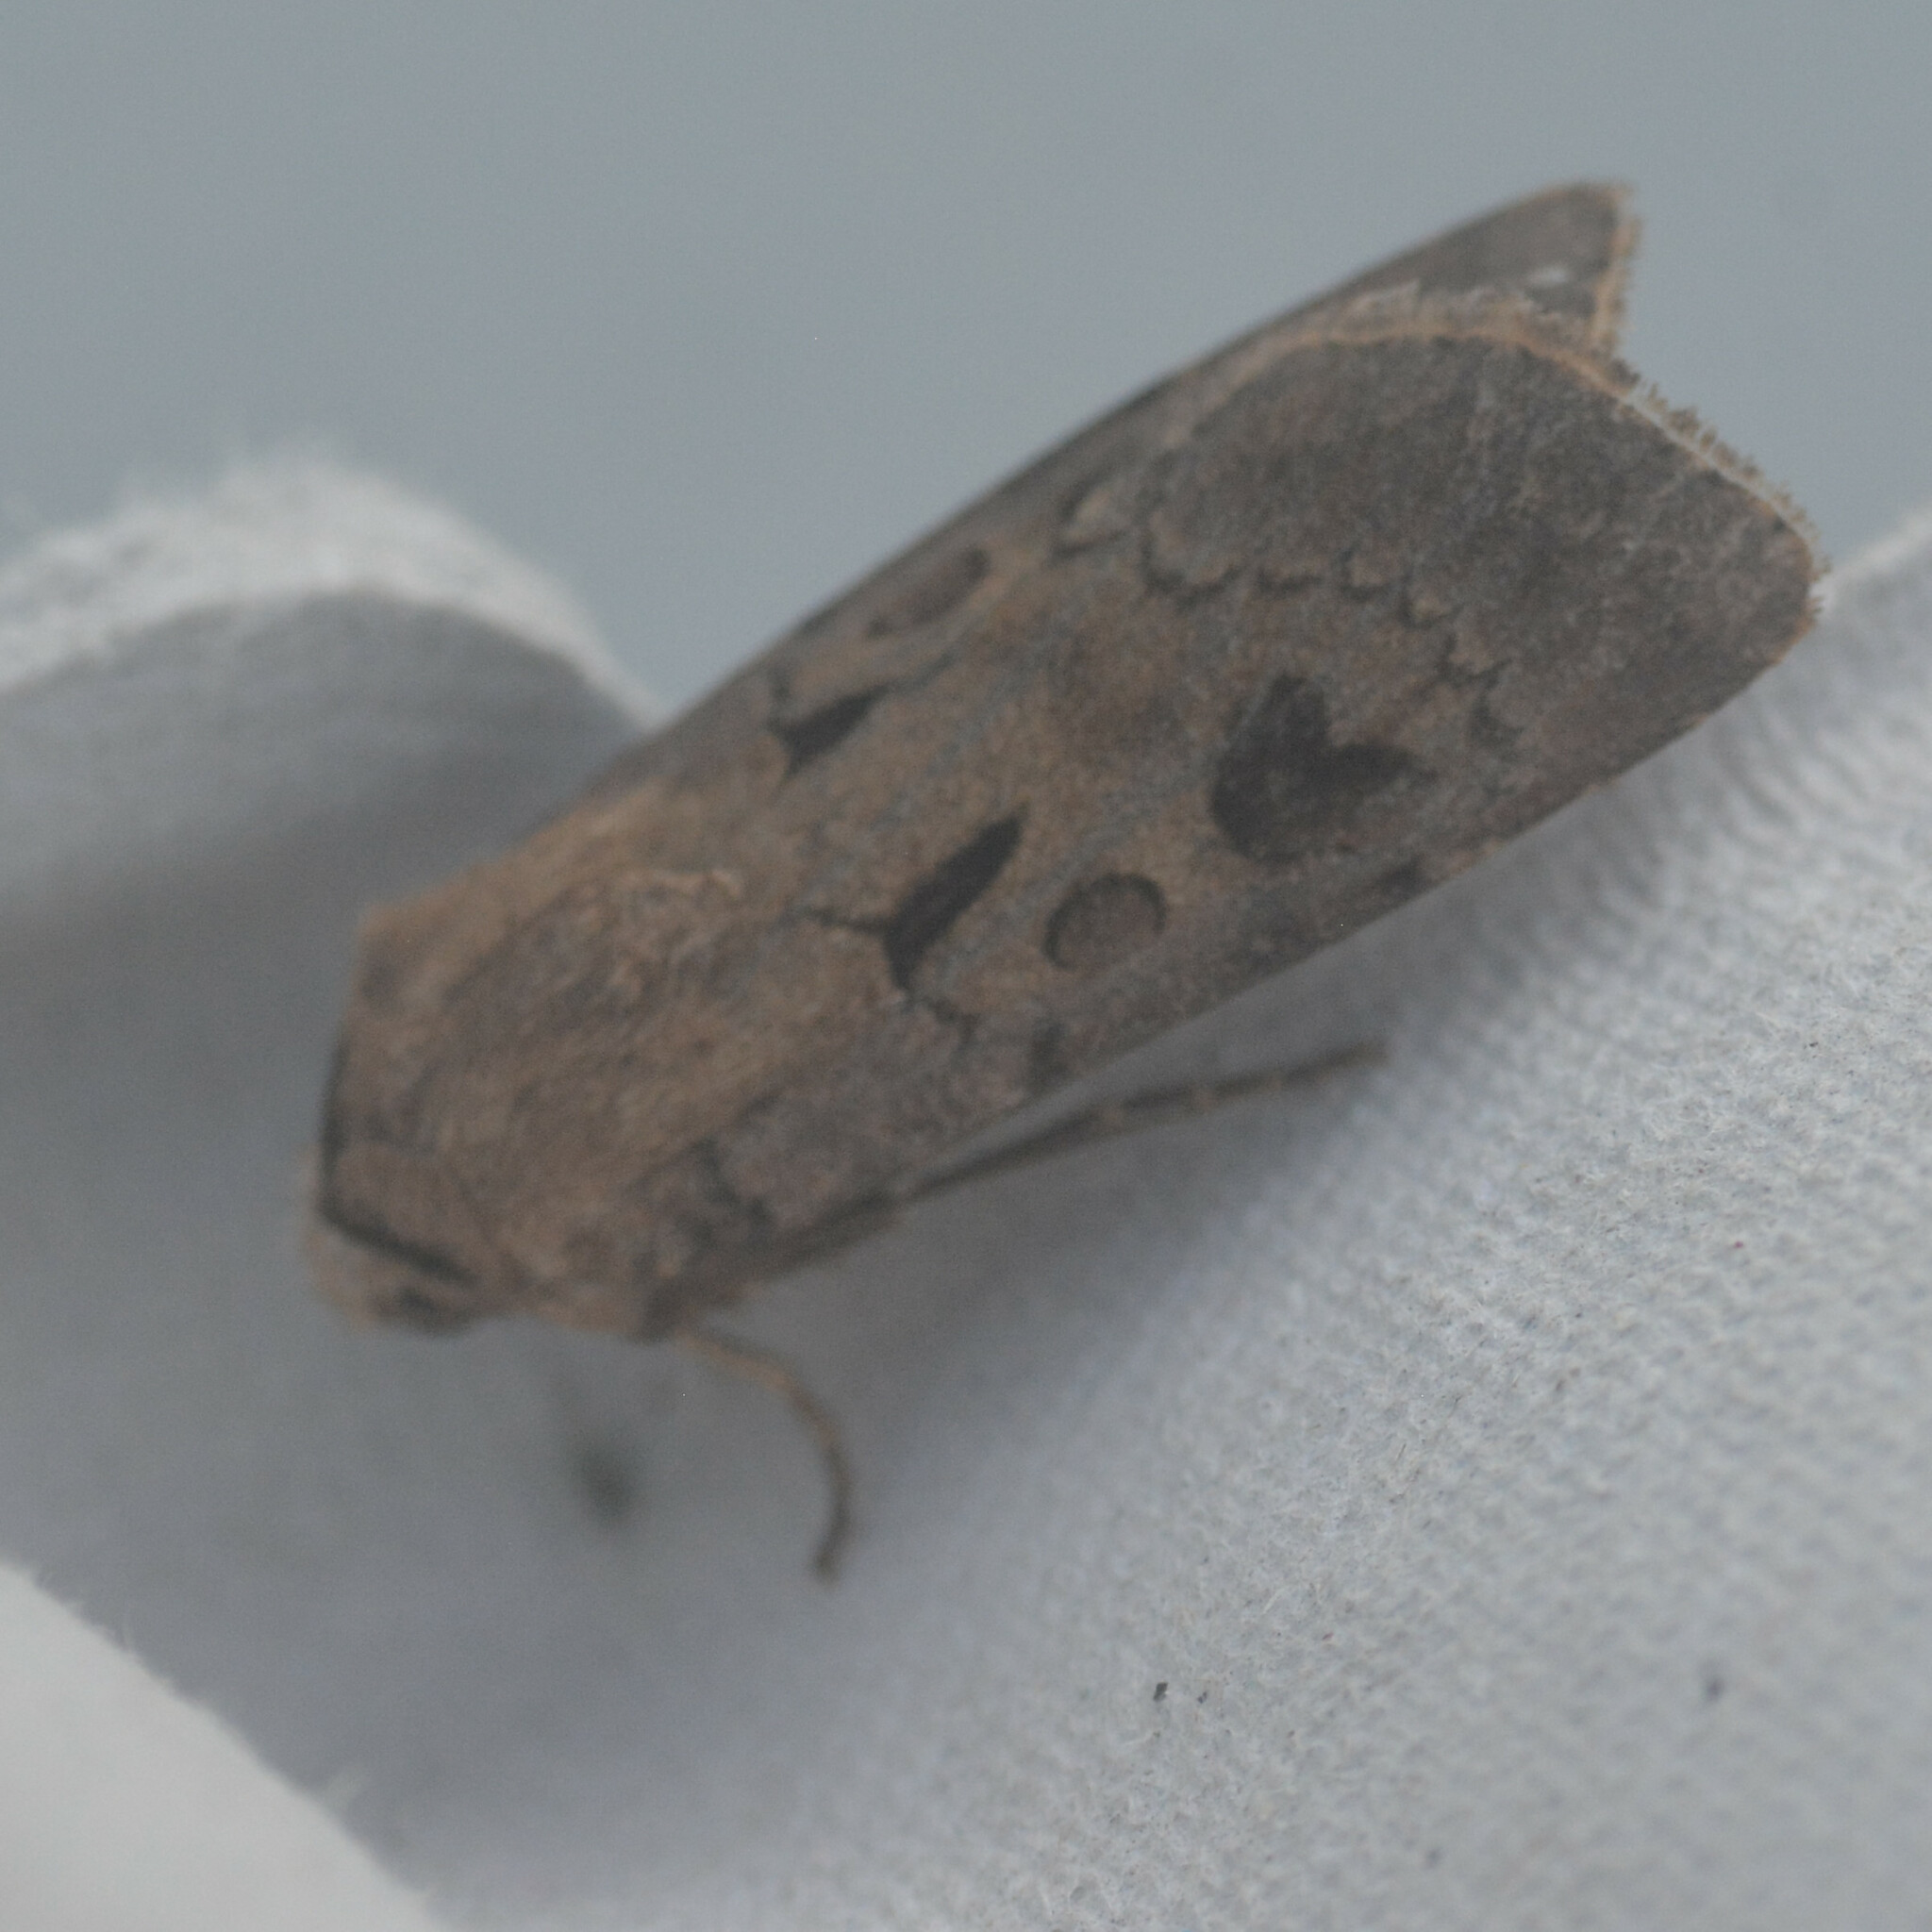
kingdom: Animalia
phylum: Arthropoda
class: Insecta
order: Lepidoptera
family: Noctuidae
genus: Agrotis
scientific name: Agrotis exclamationis
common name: Heart and dart
